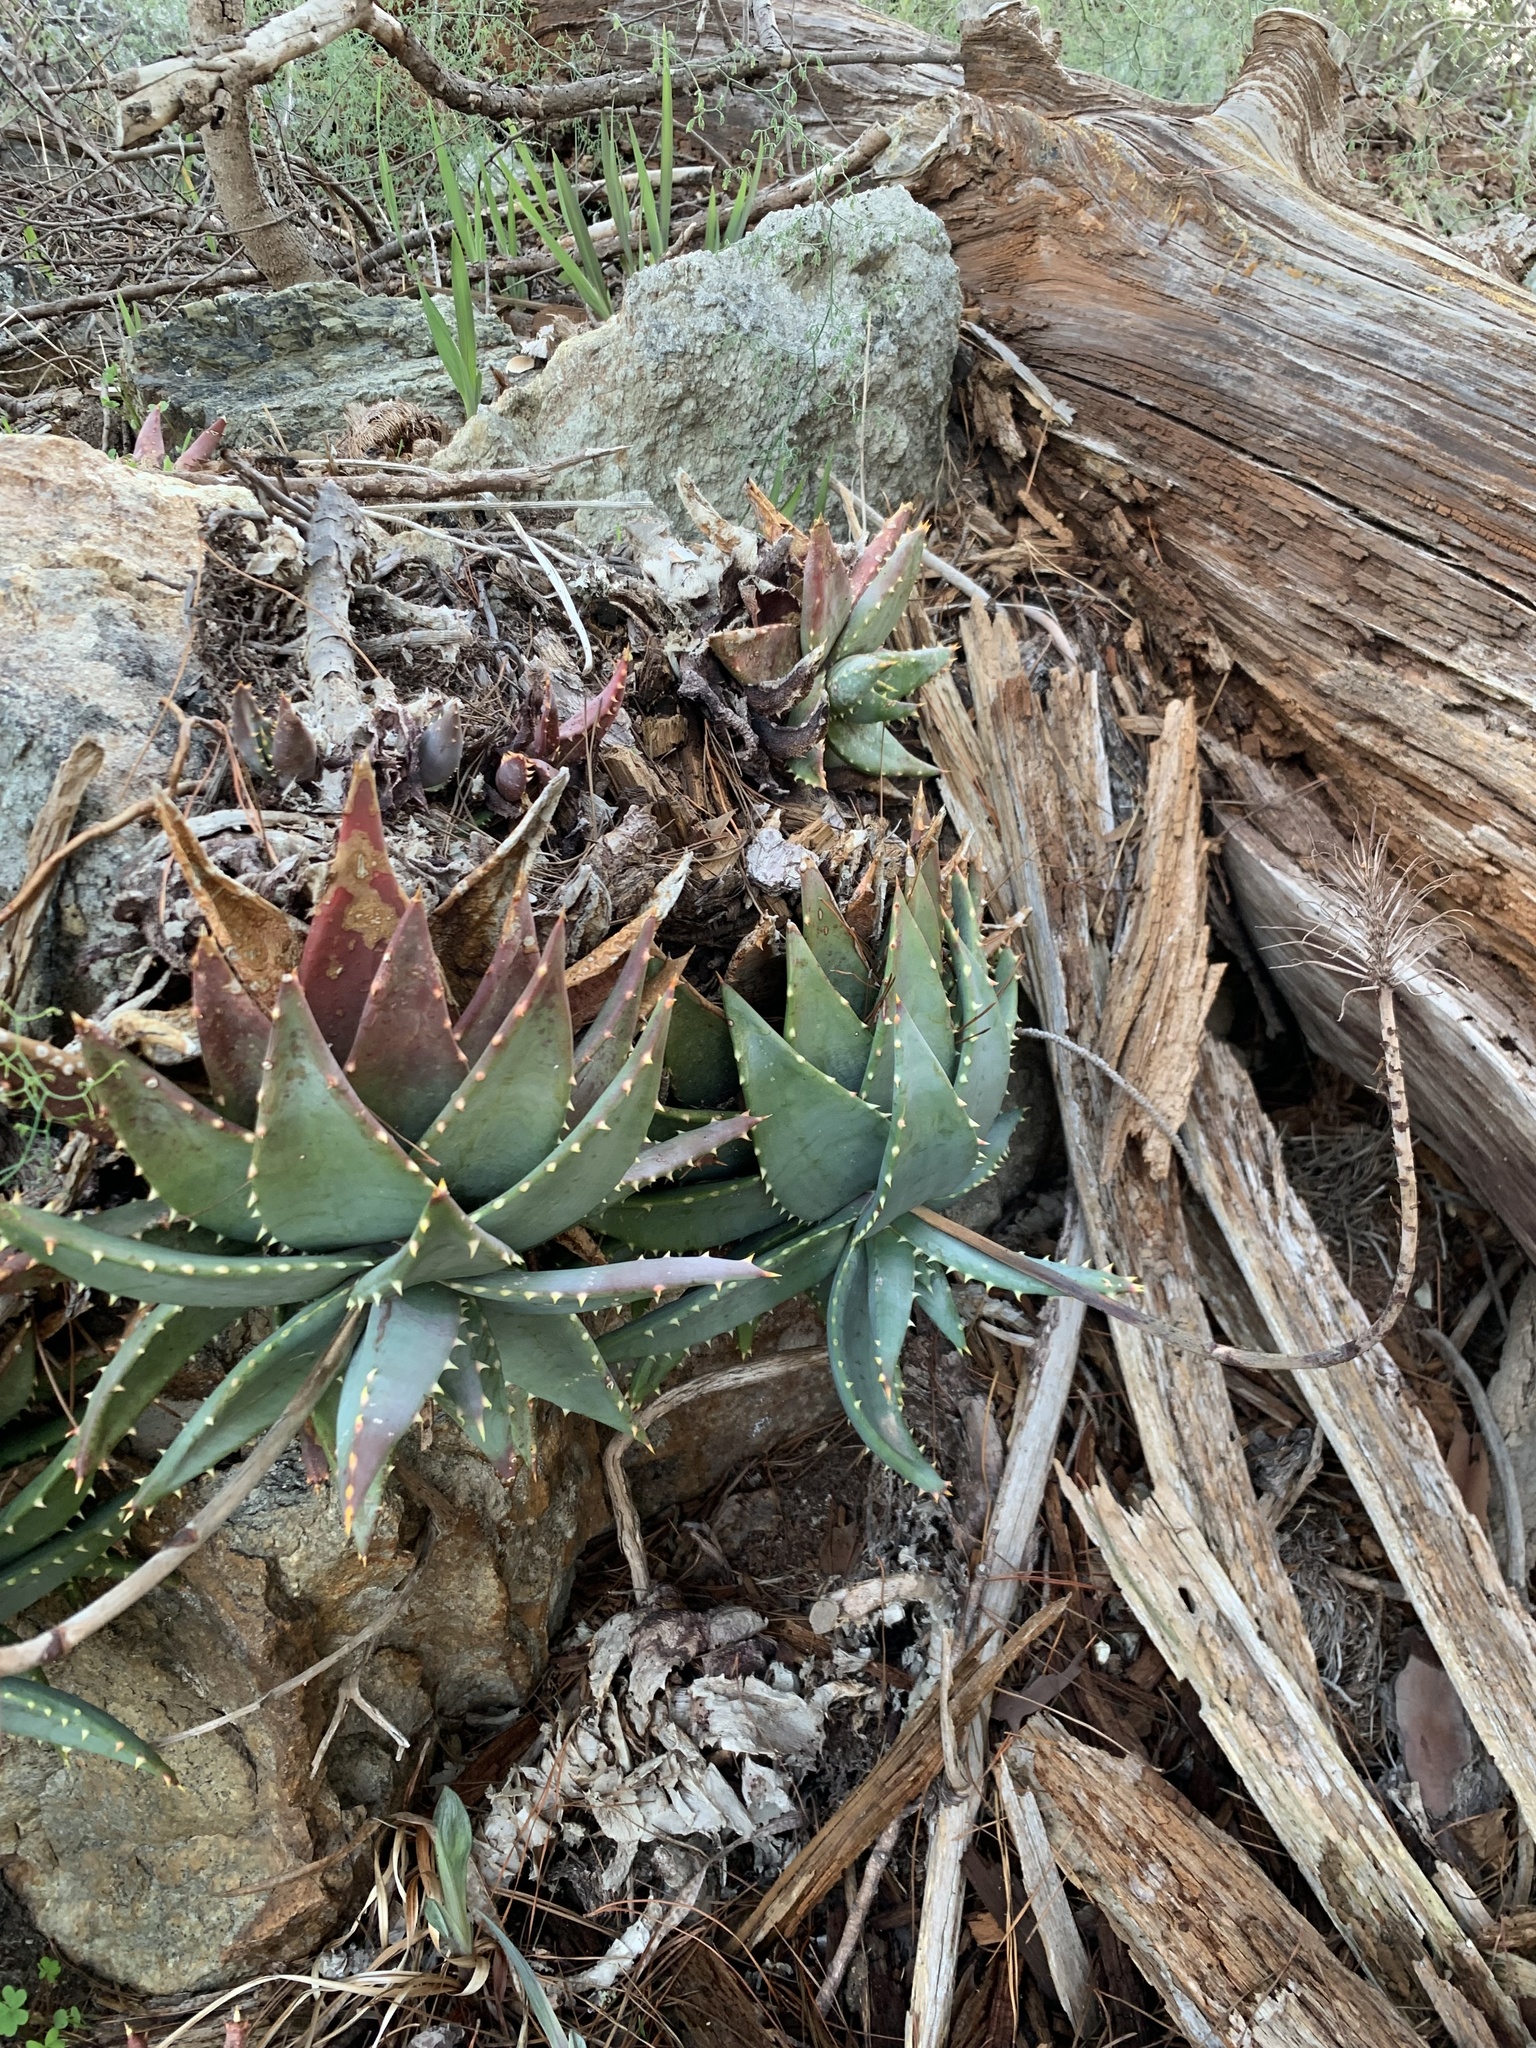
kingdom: Plantae
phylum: Tracheophyta
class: Liliopsida
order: Asparagales
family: Asphodelaceae
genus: Aloe
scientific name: Aloe perfoliata
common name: Mitra aloe
